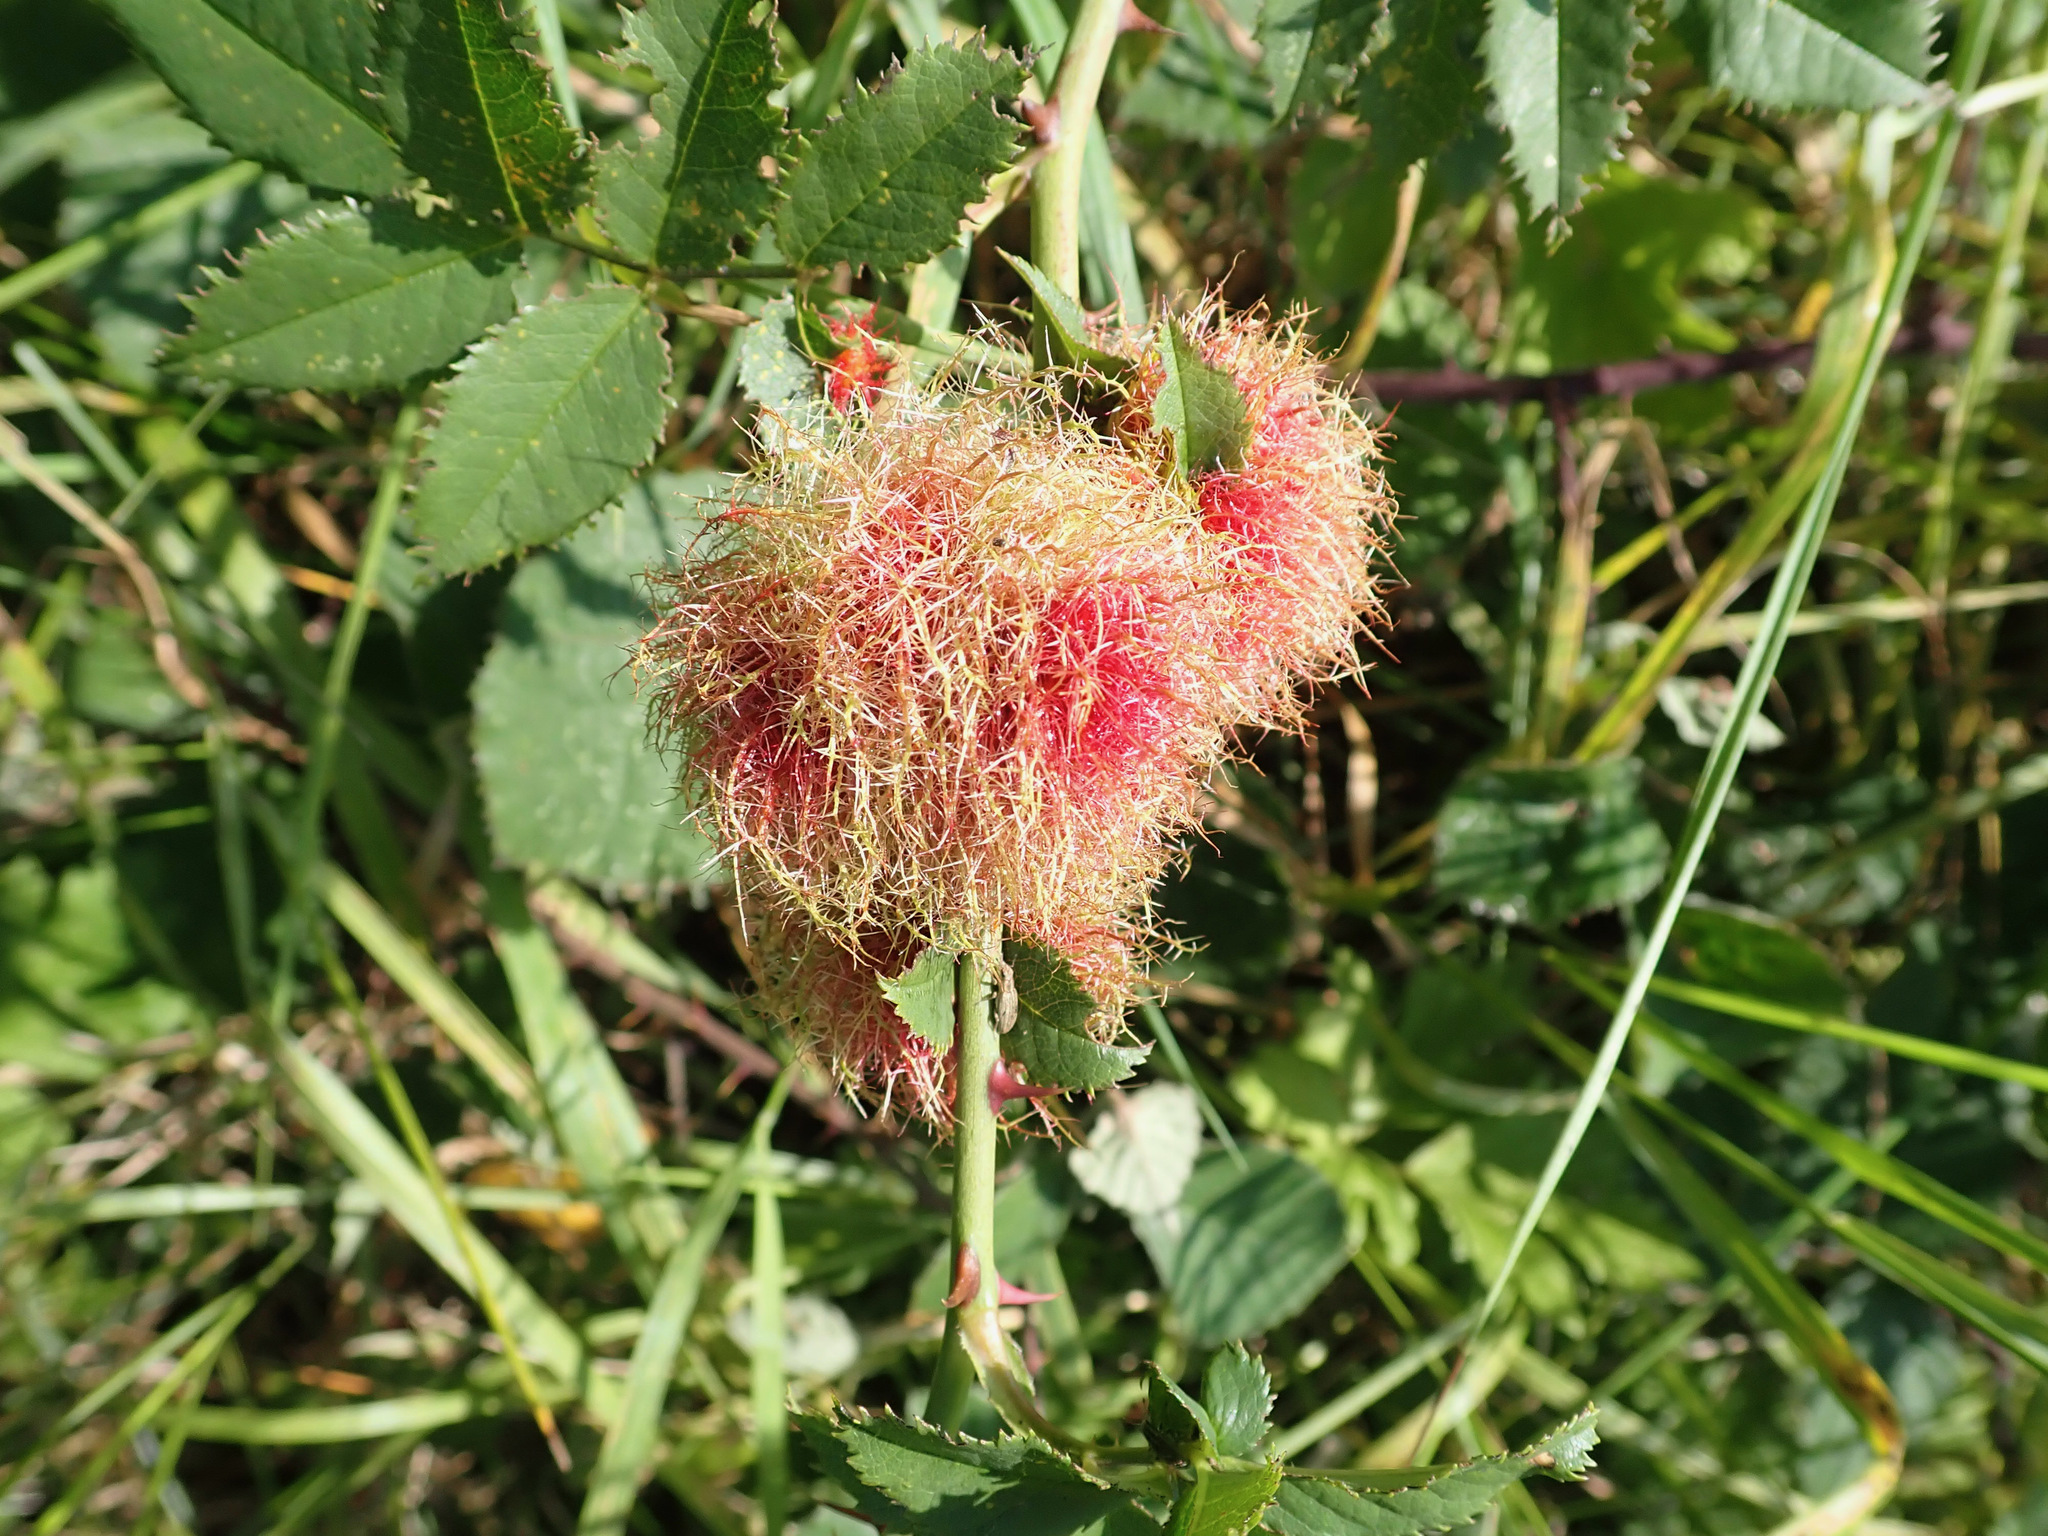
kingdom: Animalia
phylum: Arthropoda
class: Insecta
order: Hymenoptera
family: Cynipidae
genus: Diplolepis
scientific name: Diplolepis rosae
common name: Bedeguar gall
